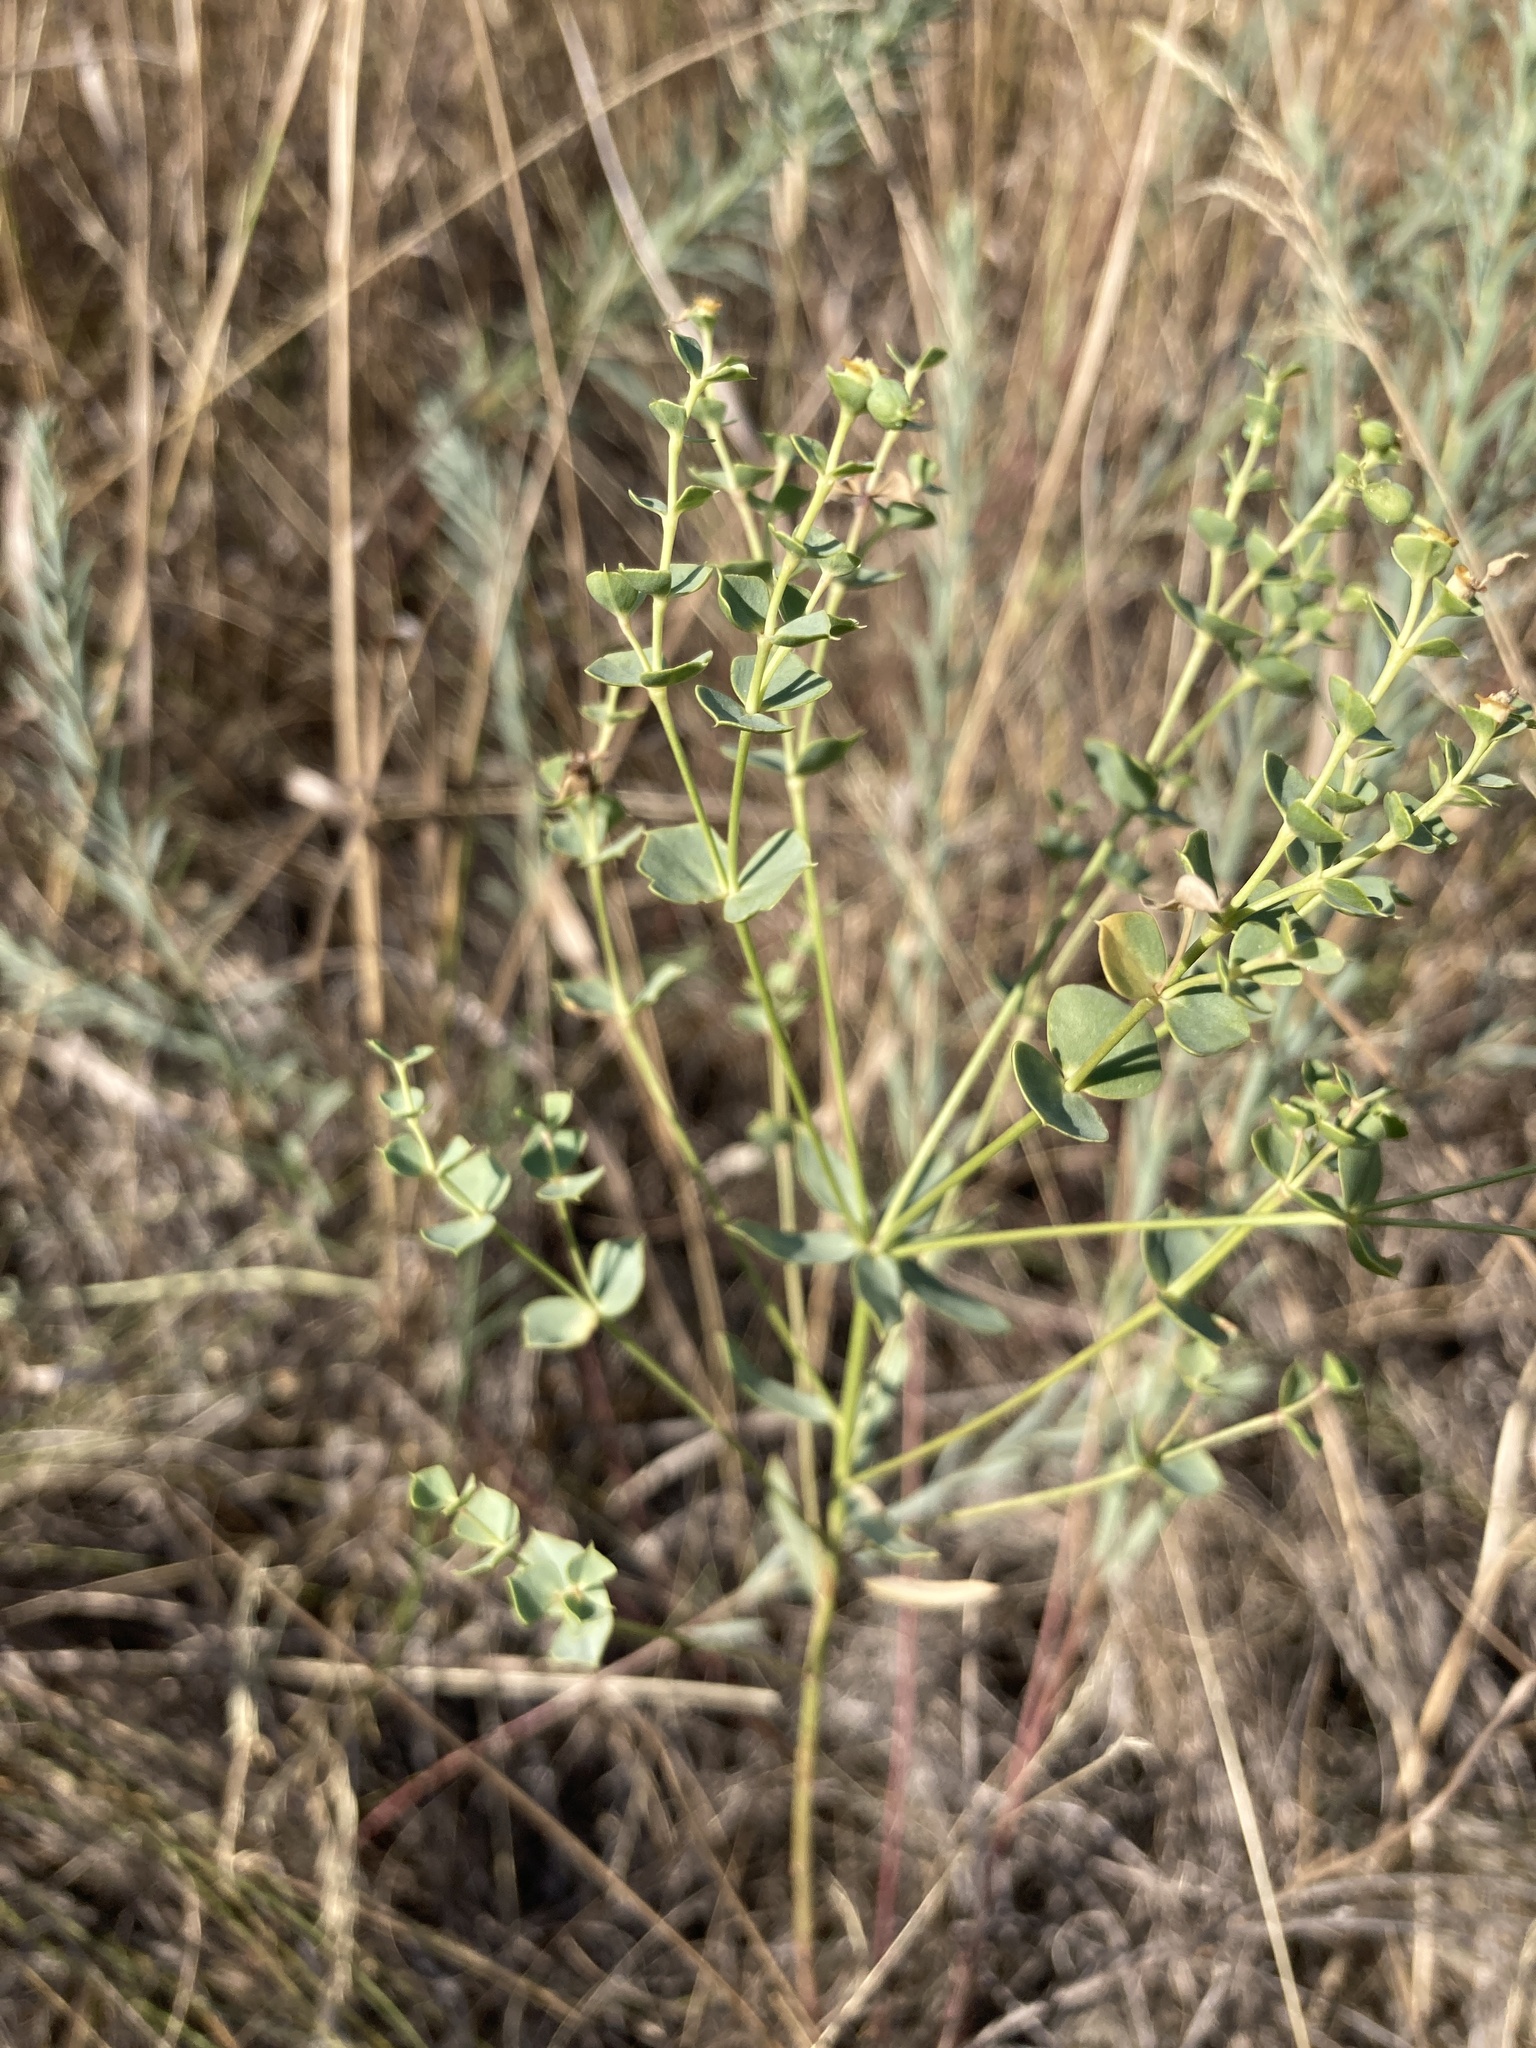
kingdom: Plantae
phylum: Tracheophyta
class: Magnoliopsida
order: Malpighiales
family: Euphorbiaceae
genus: Euphorbia
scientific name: Euphorbia seguieriana
